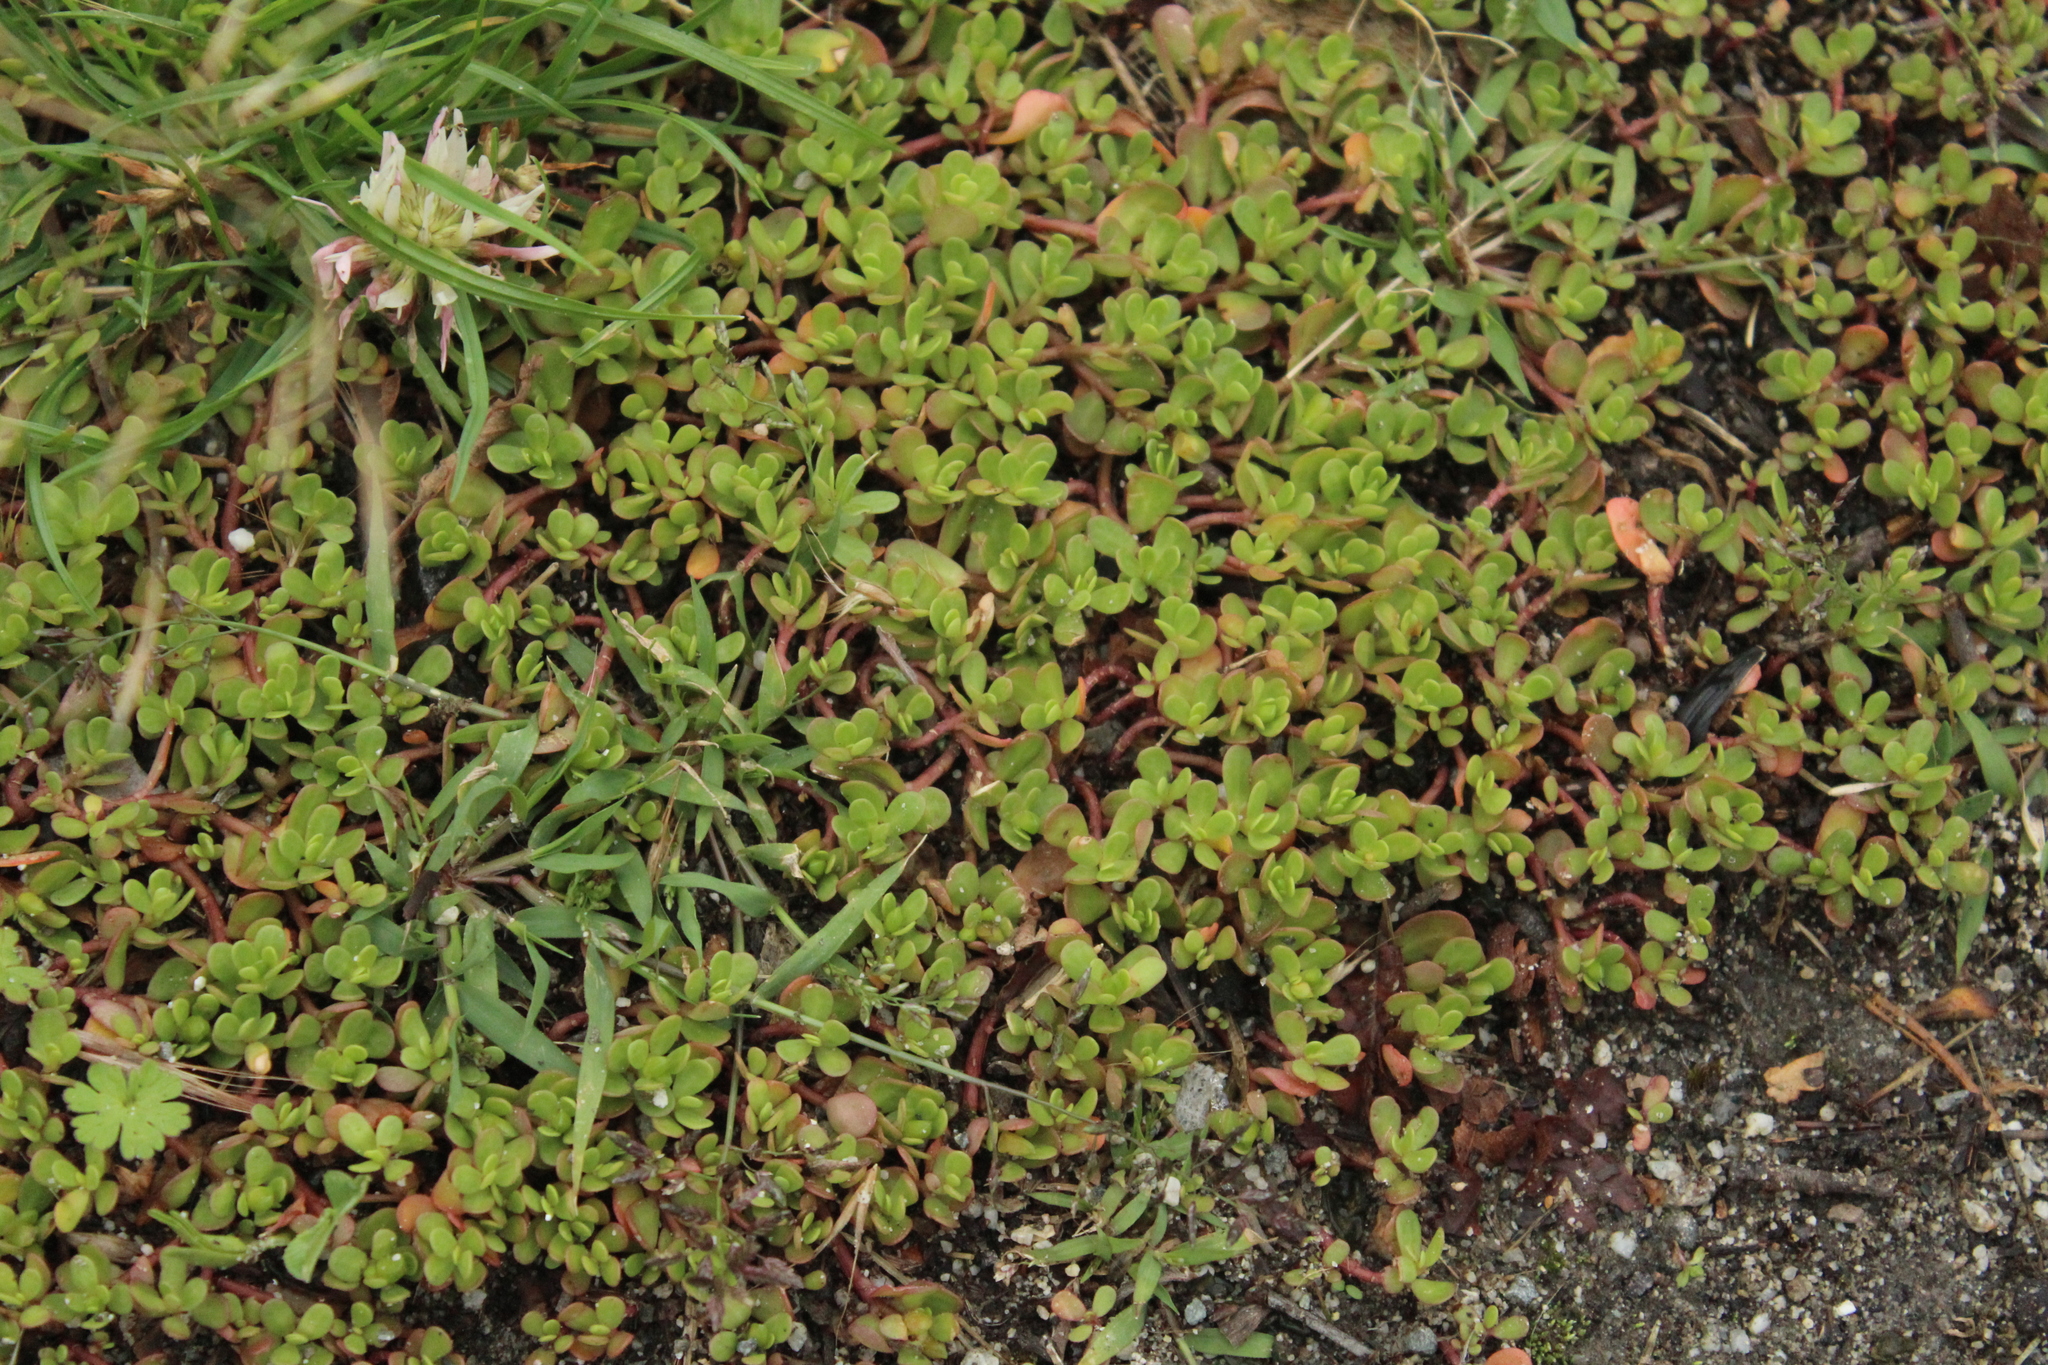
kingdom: Plantae
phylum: Tracheophyta
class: Magnoliopsida
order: Caryophyllales
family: Portulacaceae
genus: Portulaca
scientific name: Portulaca oleracea
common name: Common purslane
